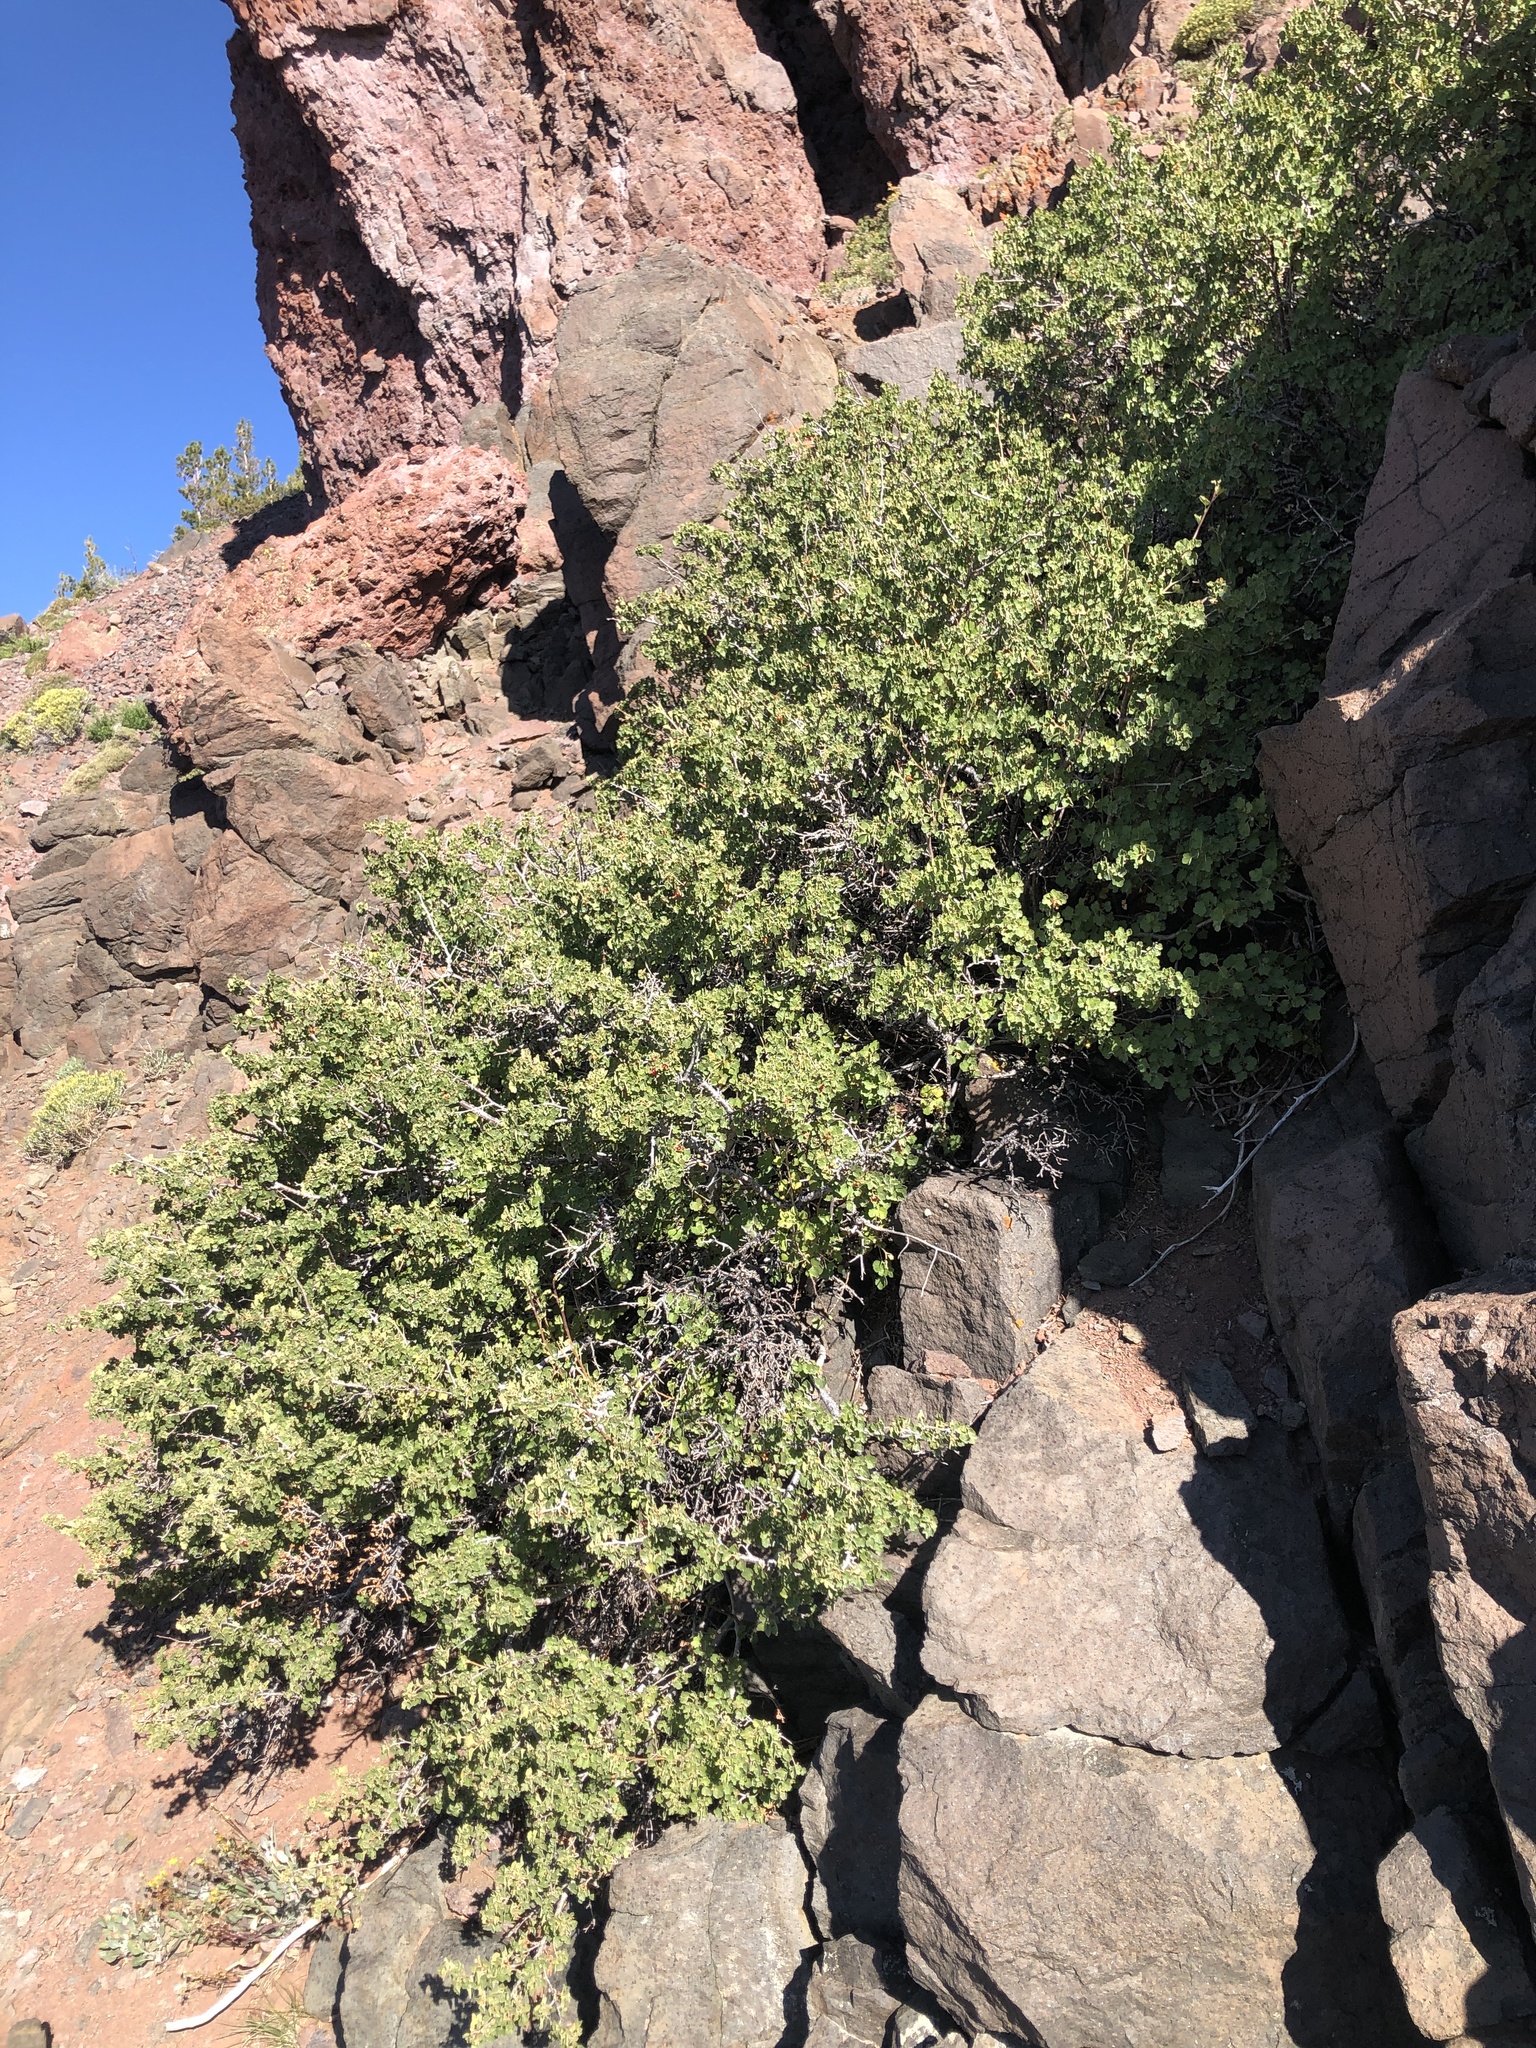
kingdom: Plantae
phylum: Tracheophyta
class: Magnoliopsida
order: Saxifragales
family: Grossulariaceae
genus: Ribes
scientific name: Ribes cereum
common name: Wax currant
